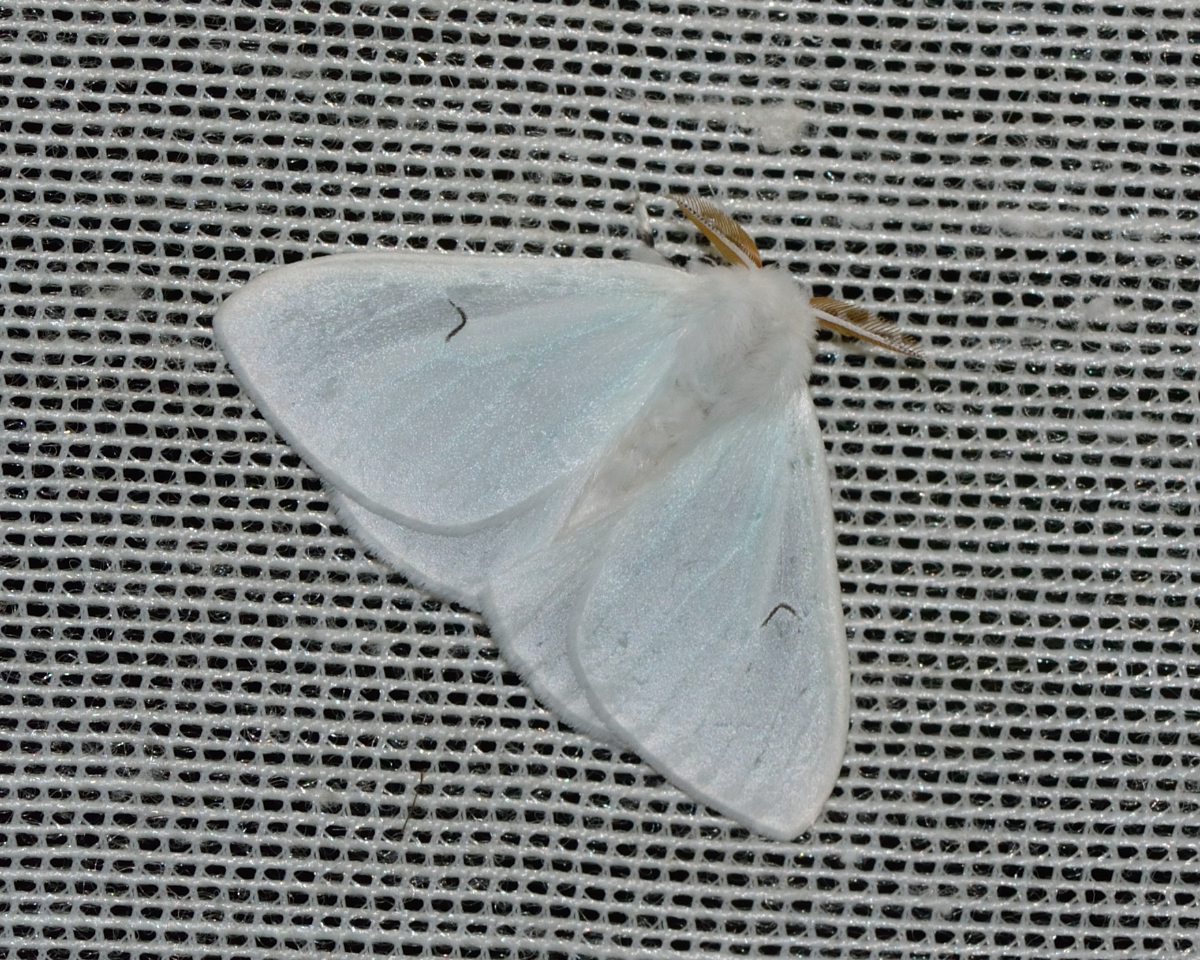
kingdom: Animalia
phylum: Arthropoda
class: Insecta
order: Lepidoptera
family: Erebidae
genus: Arctornis
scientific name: Arctornis l-nigrum
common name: Black v moth
